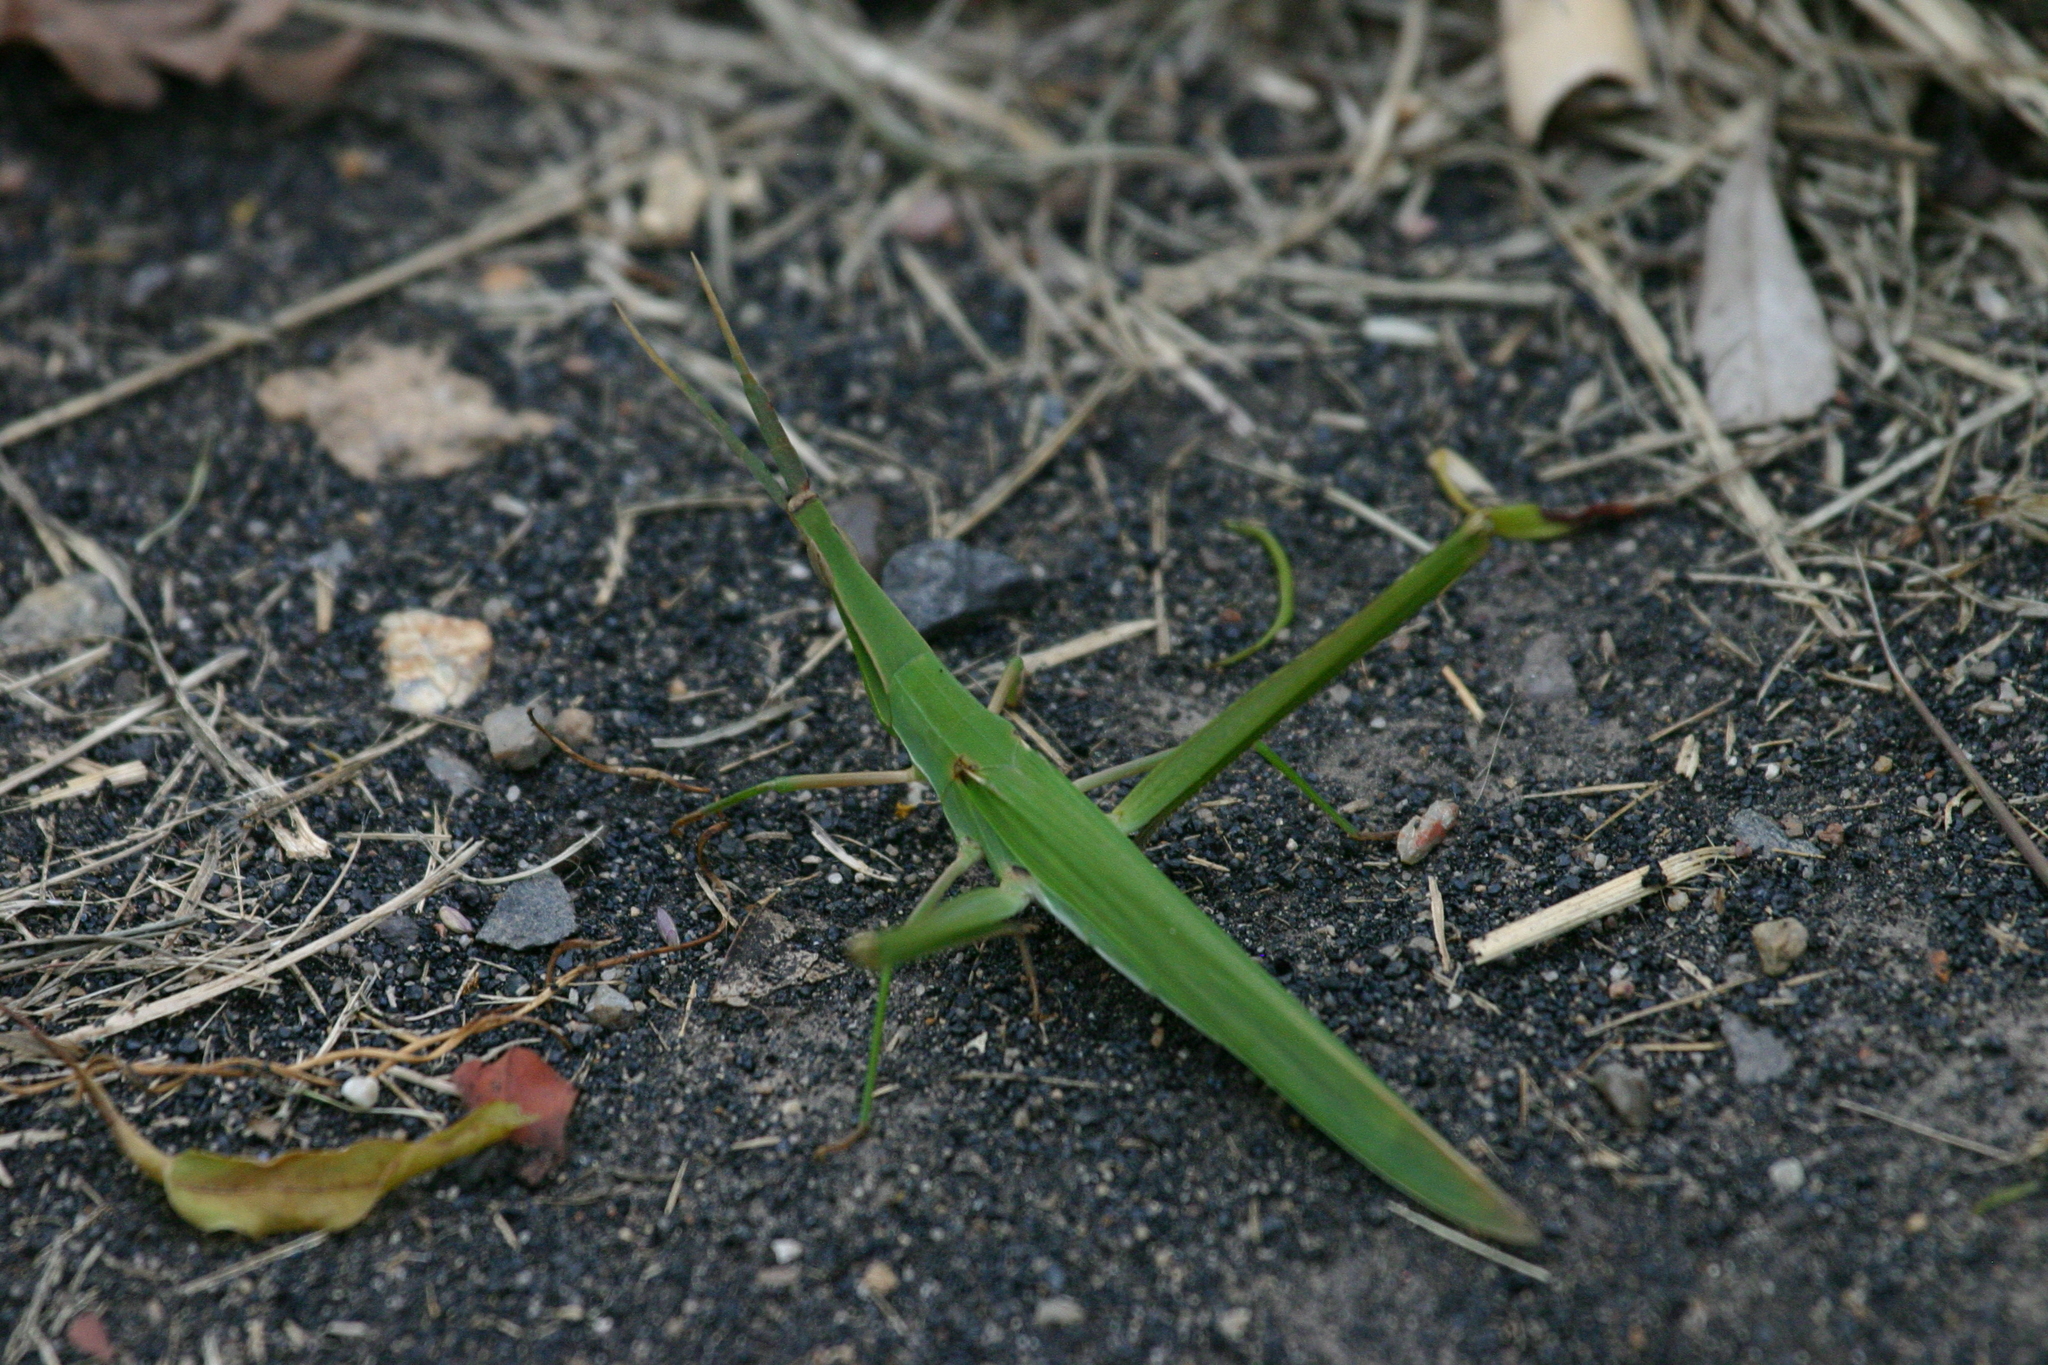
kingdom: Animalia
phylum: Arthropoda
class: Insecta
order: Orthoptera
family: Acrididae
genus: Acrida
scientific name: Acrida conica
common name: Giant green slantface
